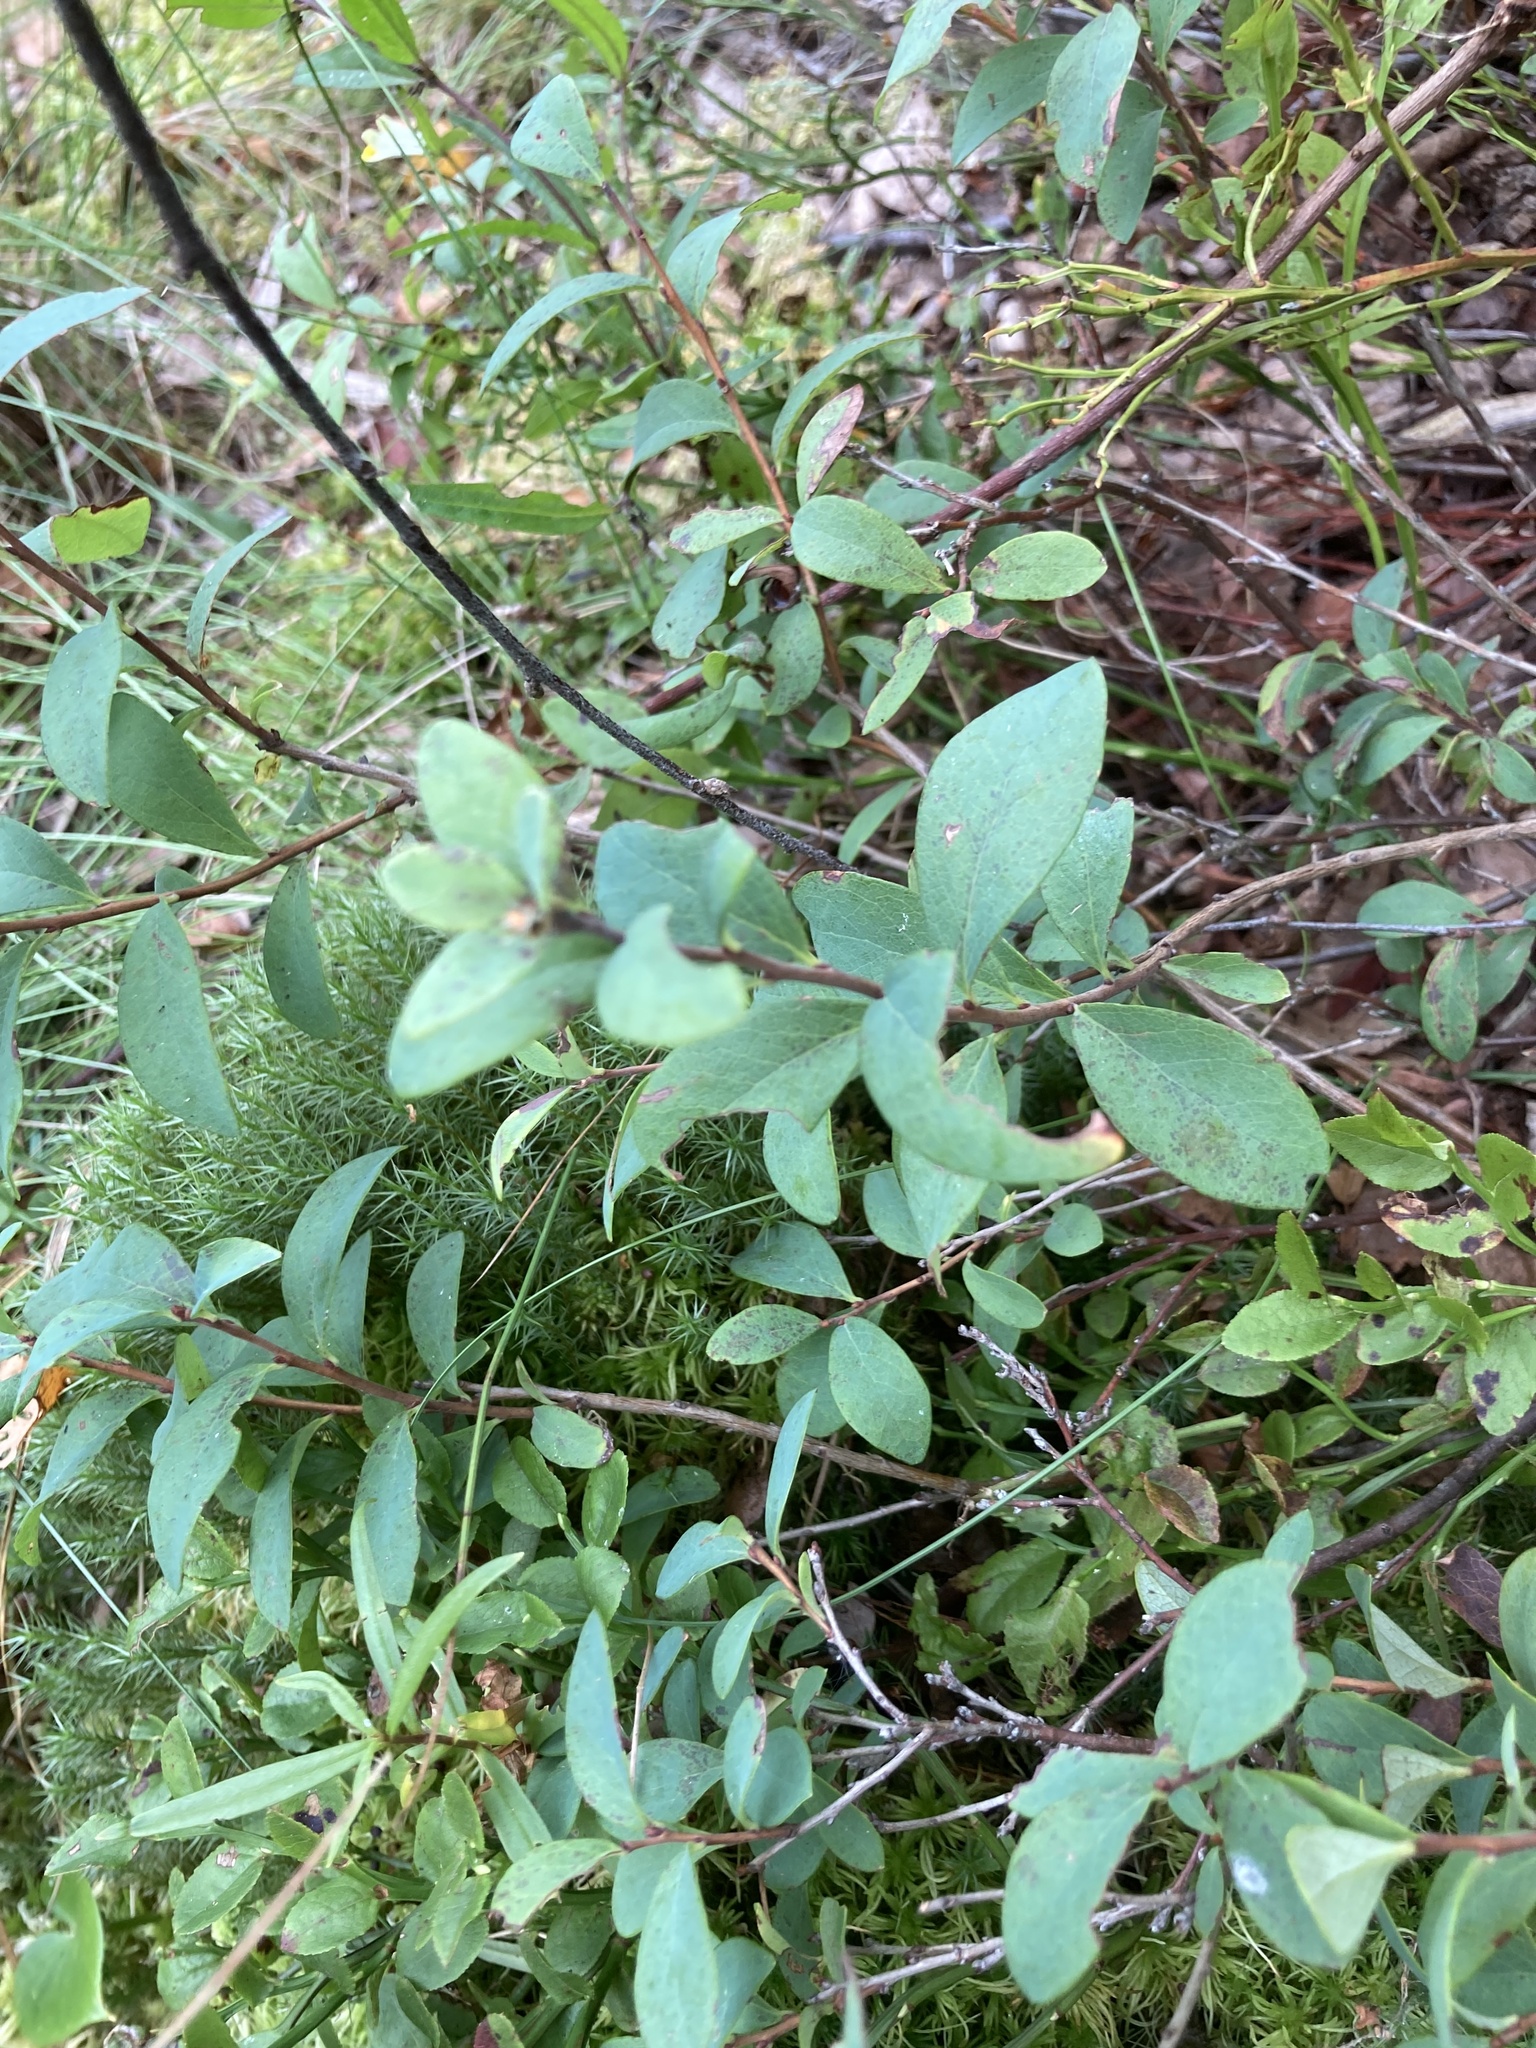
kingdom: Plantae
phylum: Tracheophyta
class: Magnoliopsida
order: Ericales
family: Ericaceae
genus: Vaccinium
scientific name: Vaccinium uliginosum
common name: Bog bilberry
